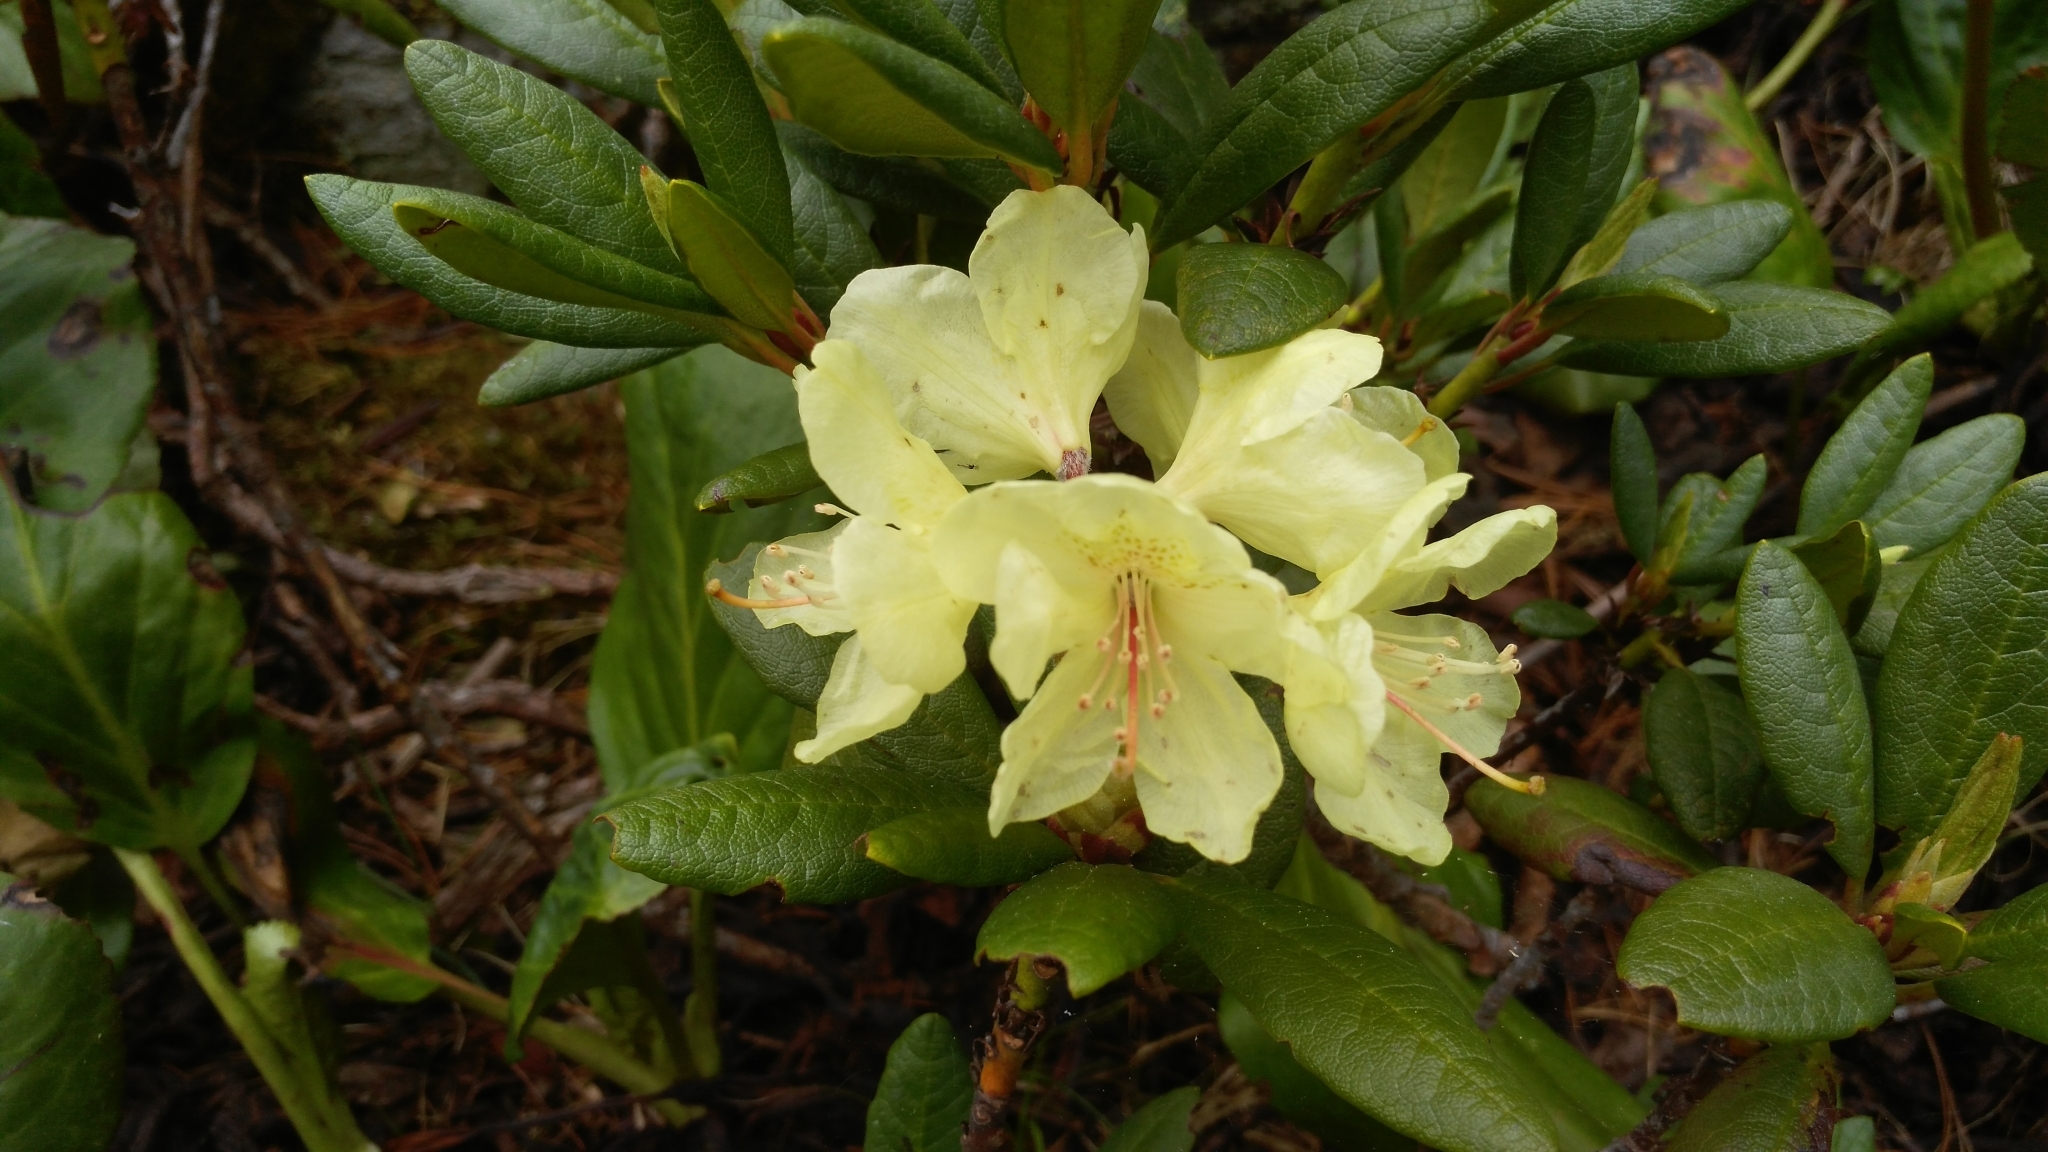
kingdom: Plantae
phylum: Tracheophyta
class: Magnoliopsida
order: Ericales
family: Ericaceae
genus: Rhododendron
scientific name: Rhododendron aureum
